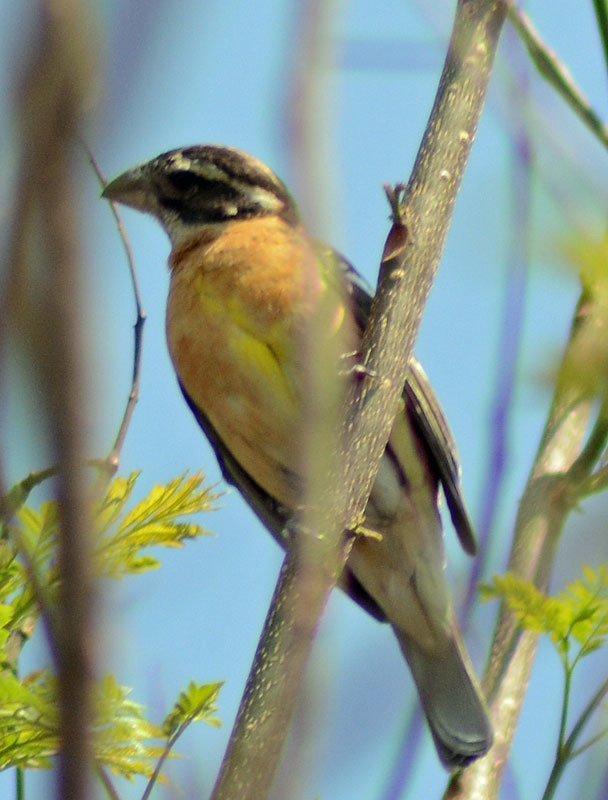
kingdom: Animalia
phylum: Chordata
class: Aves
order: Passeriformes
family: Cardinalidae
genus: Pheucticus
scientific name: Pheucticus melanocephalus
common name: Black-headed grosbeak
